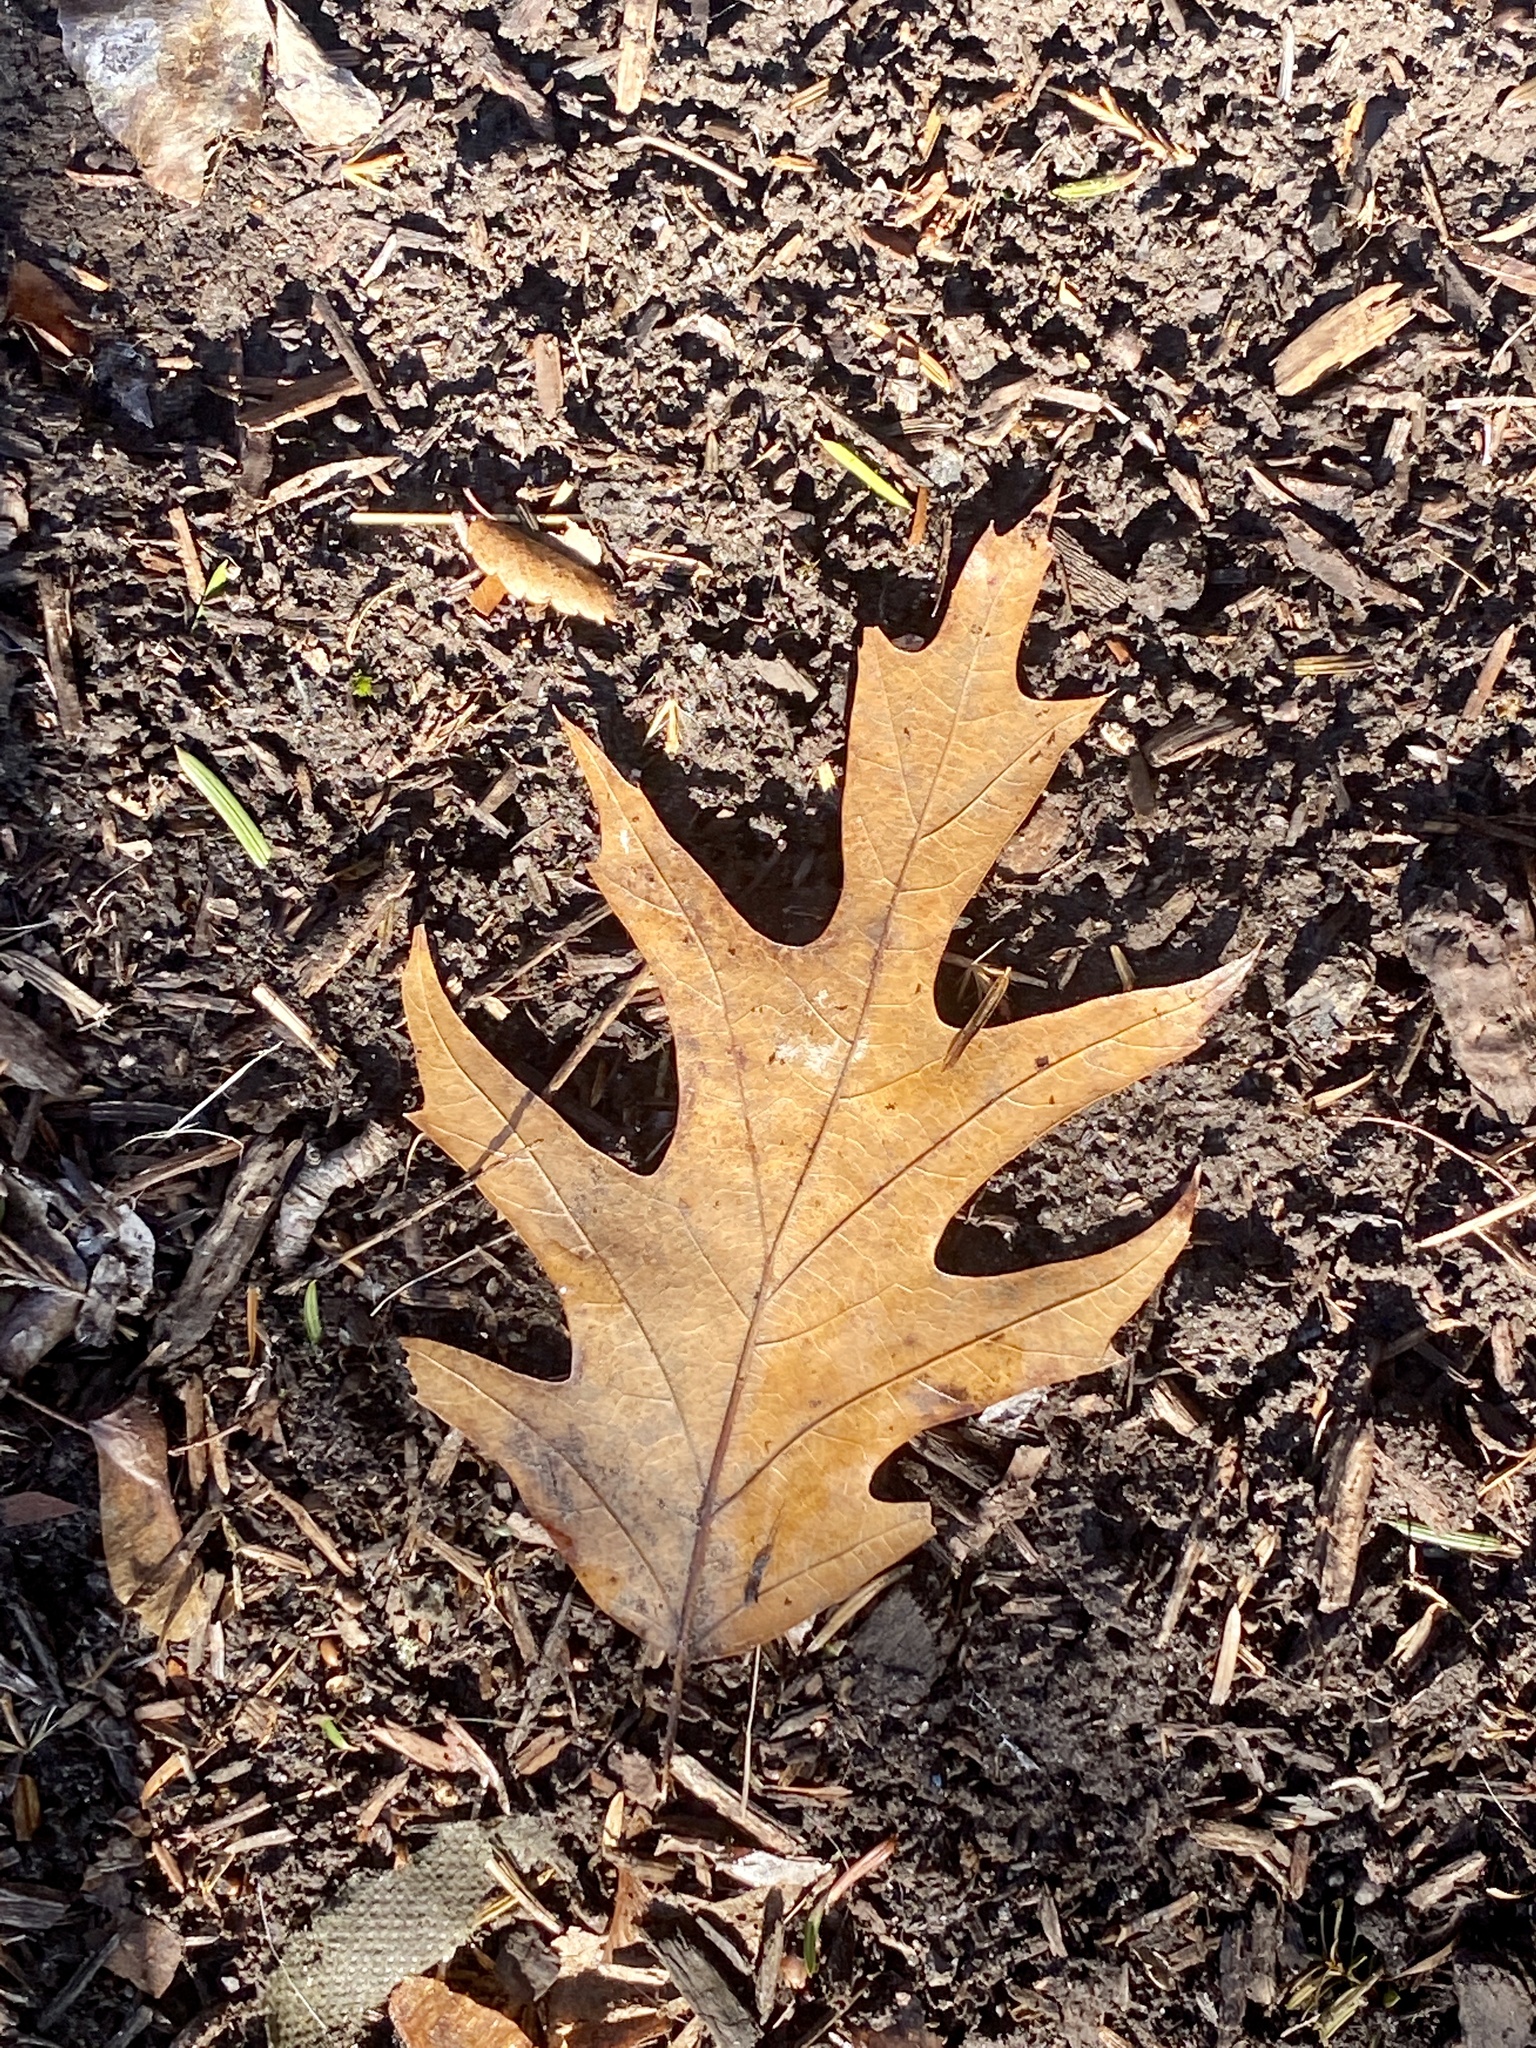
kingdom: Plantae
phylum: Tracheophyta
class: Magnoliopsida
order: Fagales
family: Fagaceae
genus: Quercus
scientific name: Quercus rubra
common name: Red oak
